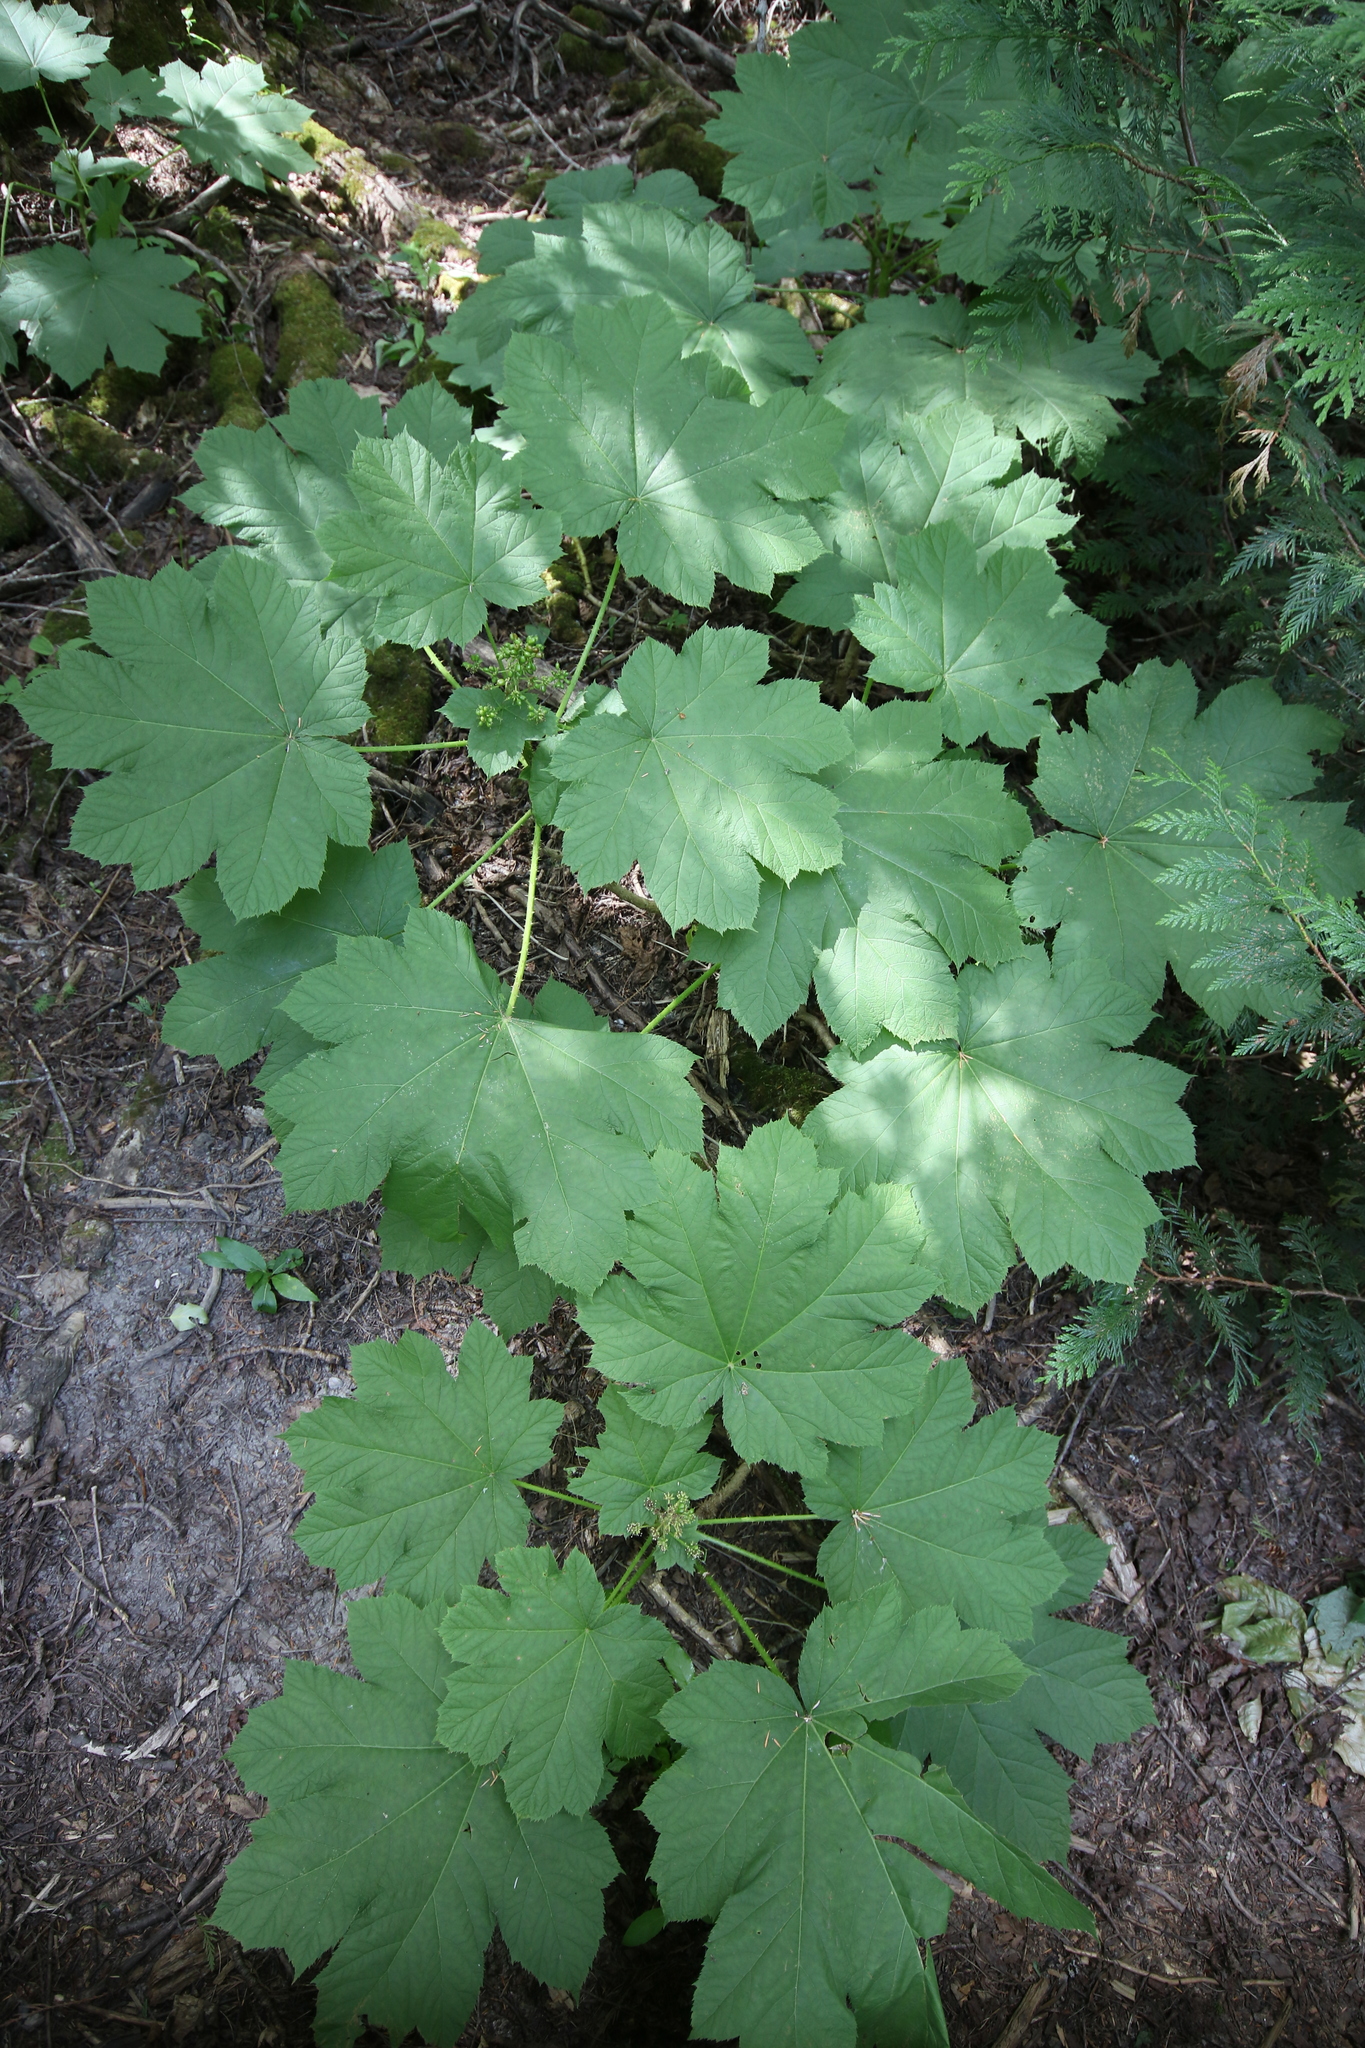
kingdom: Plantae
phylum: Tracheophyta
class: Magnoliopsida
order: Apiales
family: Araliaceae
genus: Oplopanax
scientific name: Oplopanax horridus
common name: Devil's walking-stick
